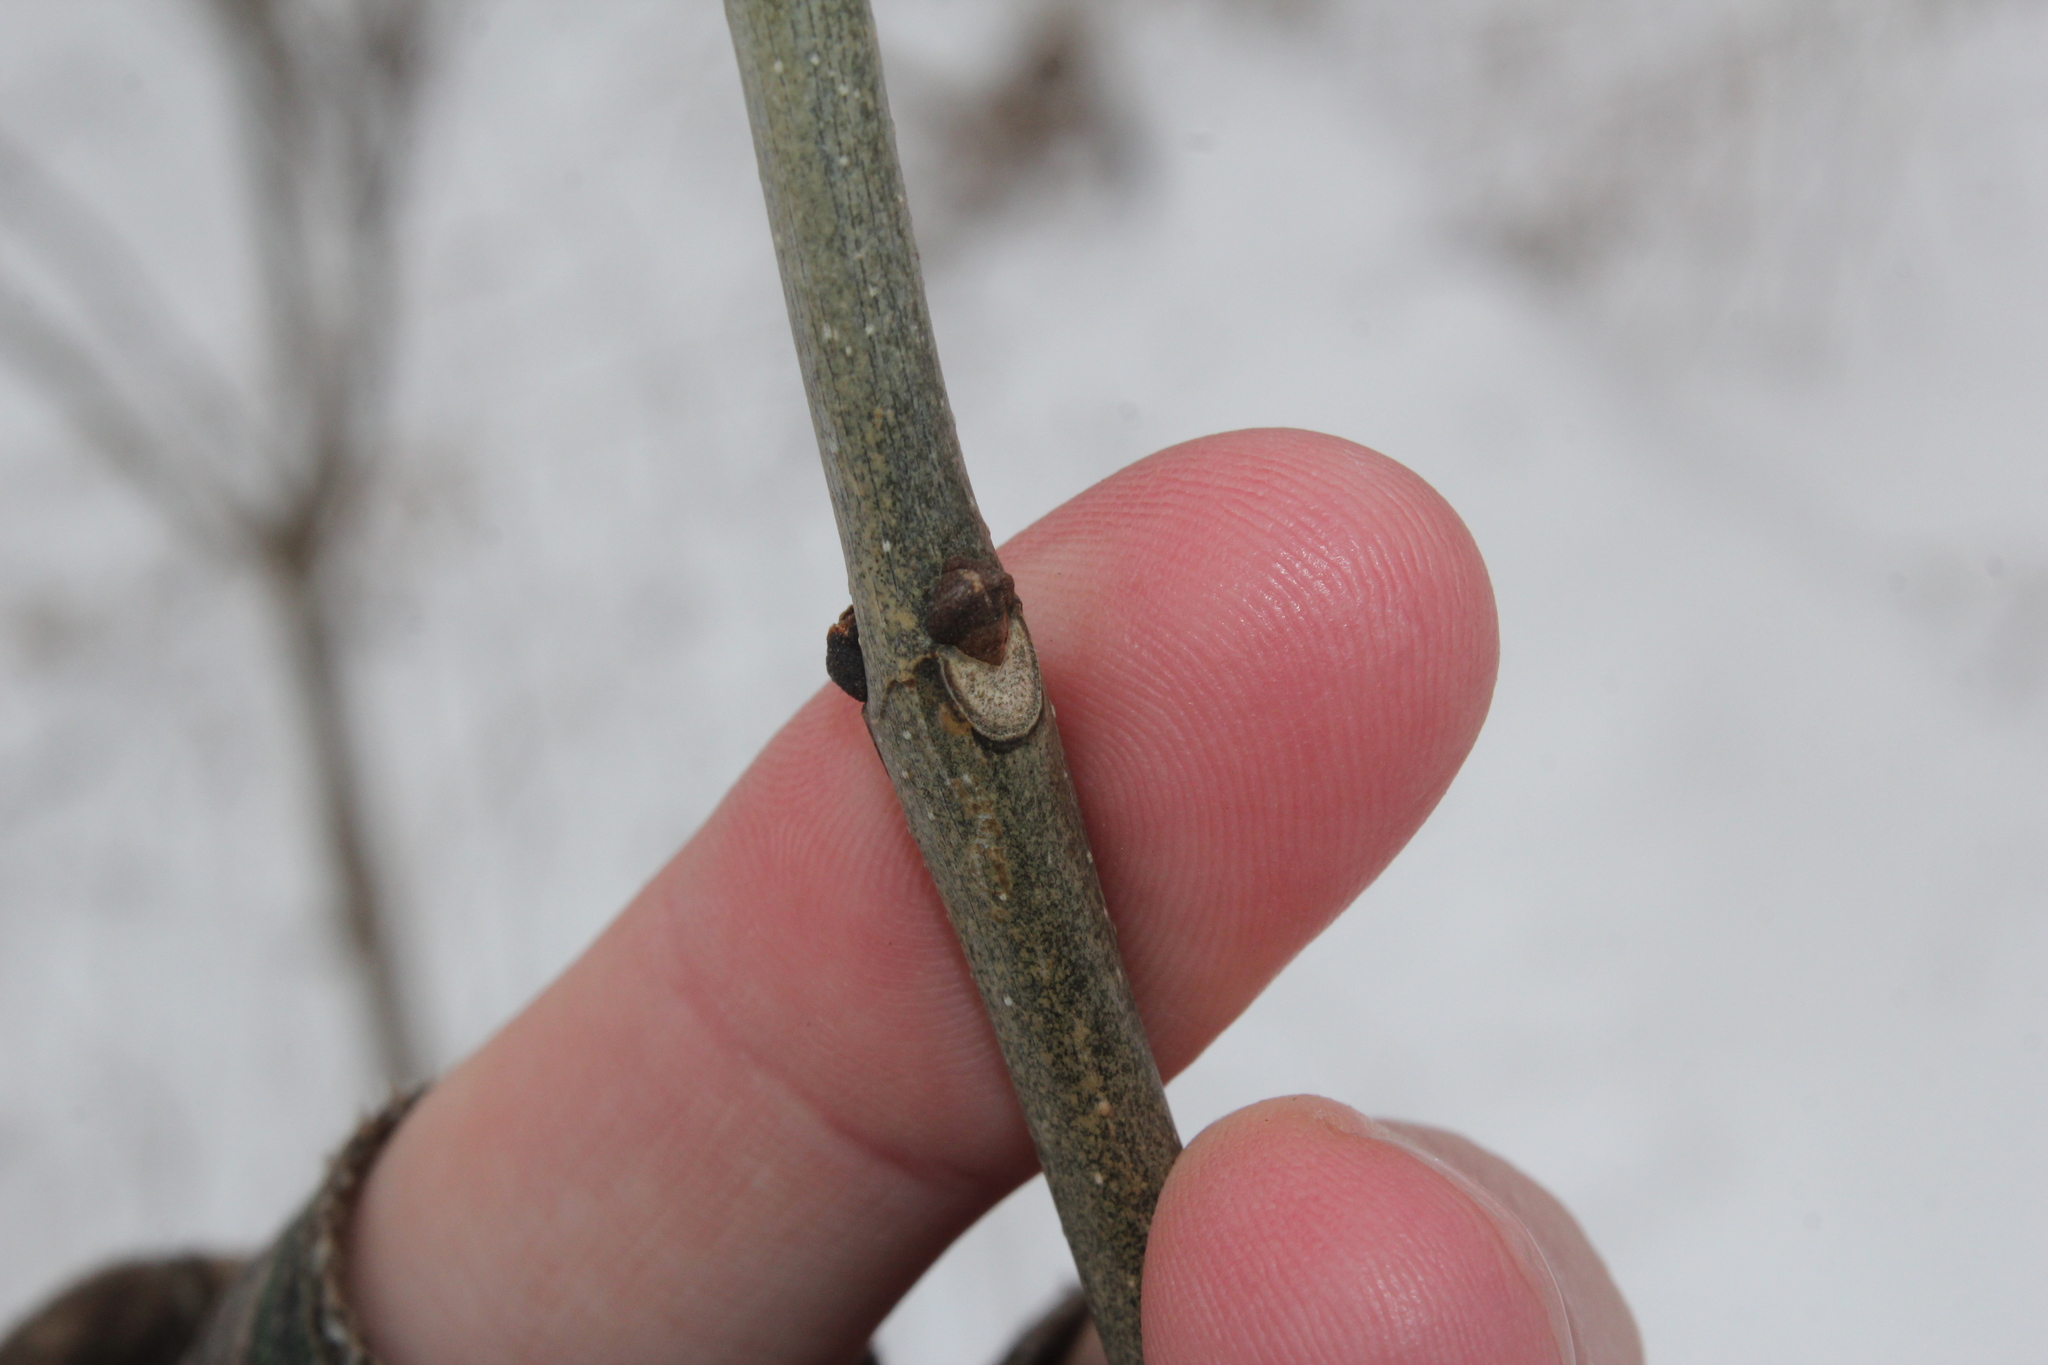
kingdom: Plantae
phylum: Tracheophyta
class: Magnoliopsida
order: Lamiales
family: Oleaceae
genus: Fraxinus
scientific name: Fraxinus americana
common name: White ash
